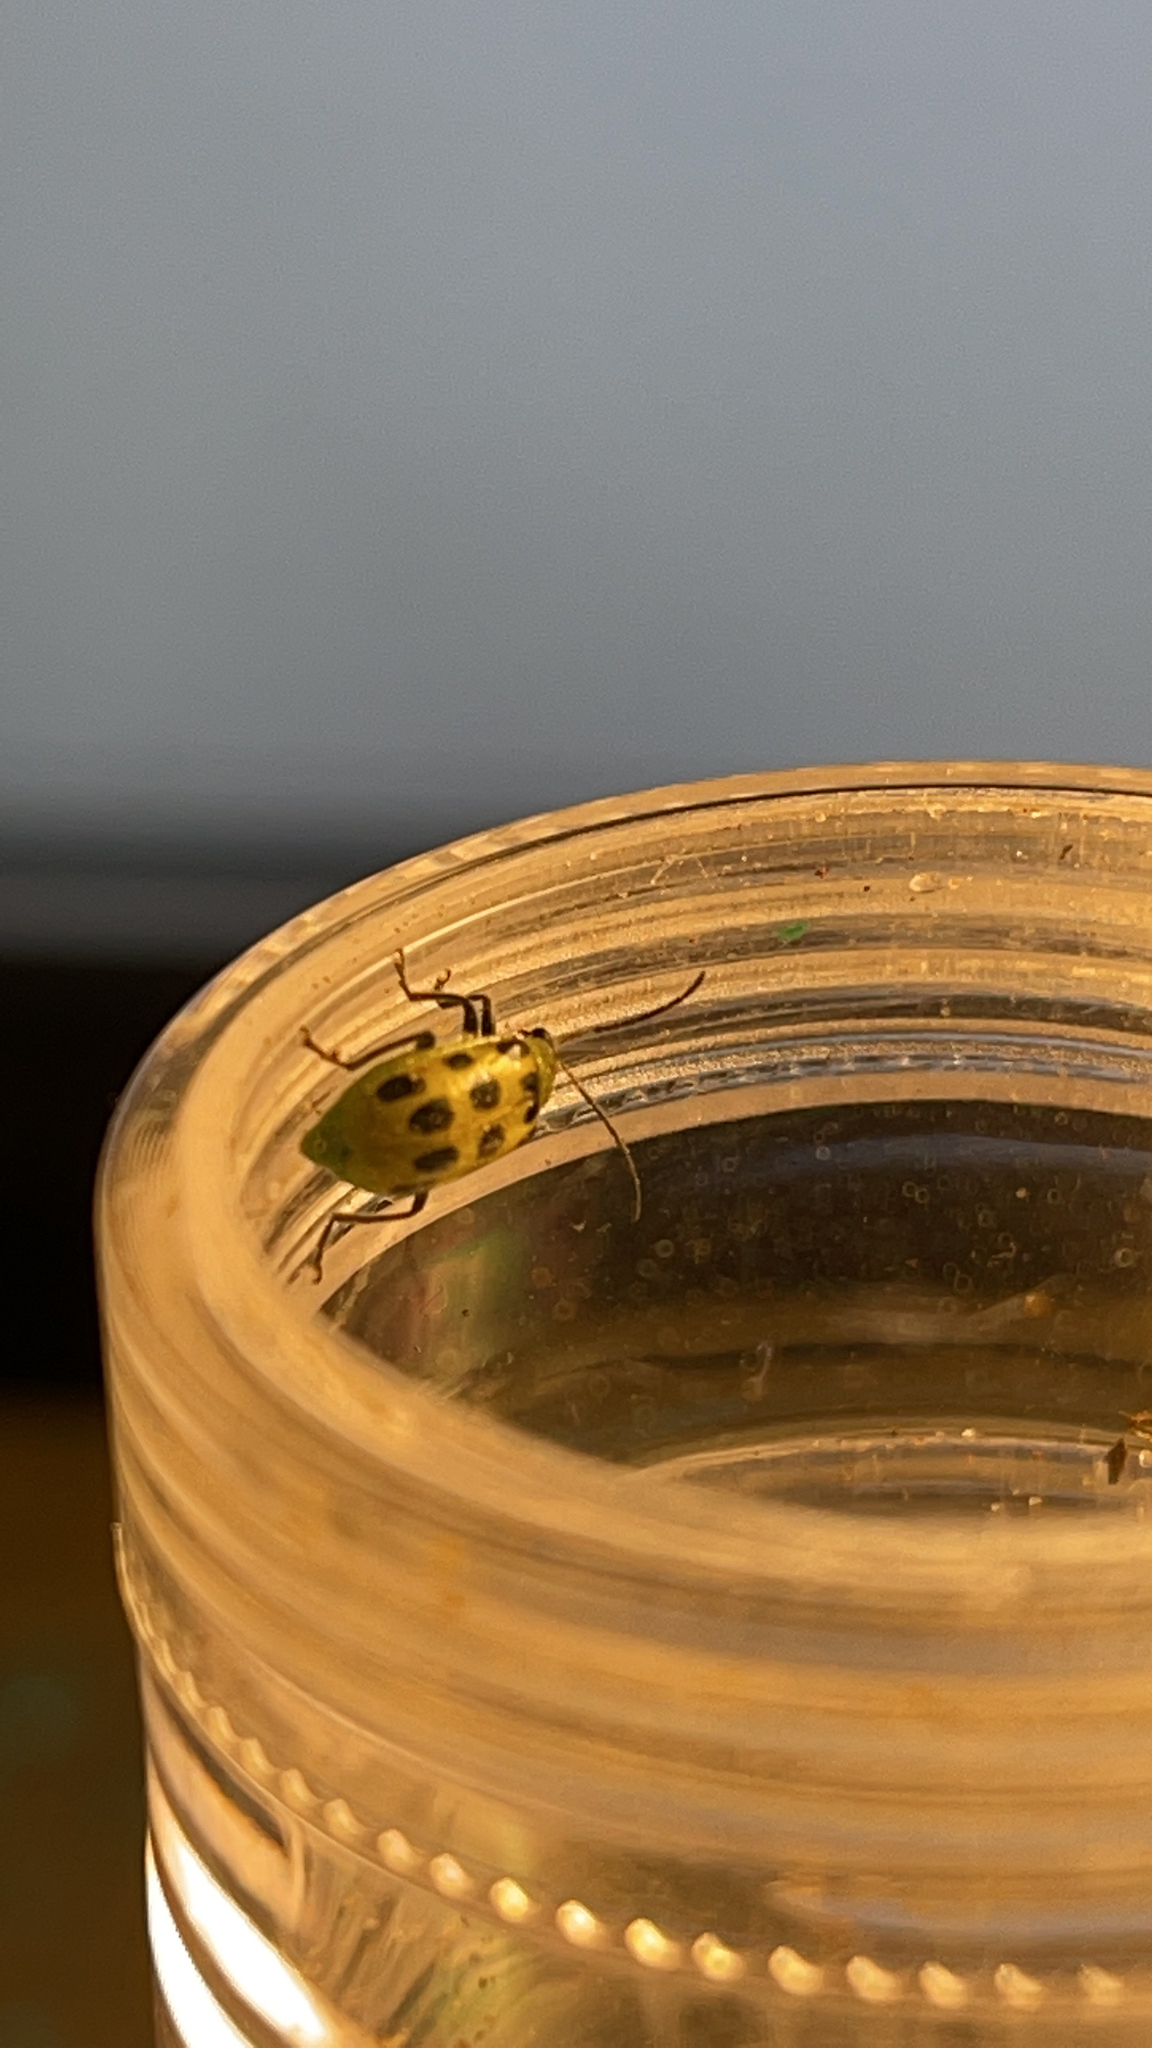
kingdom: Animalia
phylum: Arthropoda
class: Insecta
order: Coleoptera
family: Chrysomelidae
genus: Diabrotica
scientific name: Diabrotica undecimpunctata
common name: Spotted cucumber beetle
